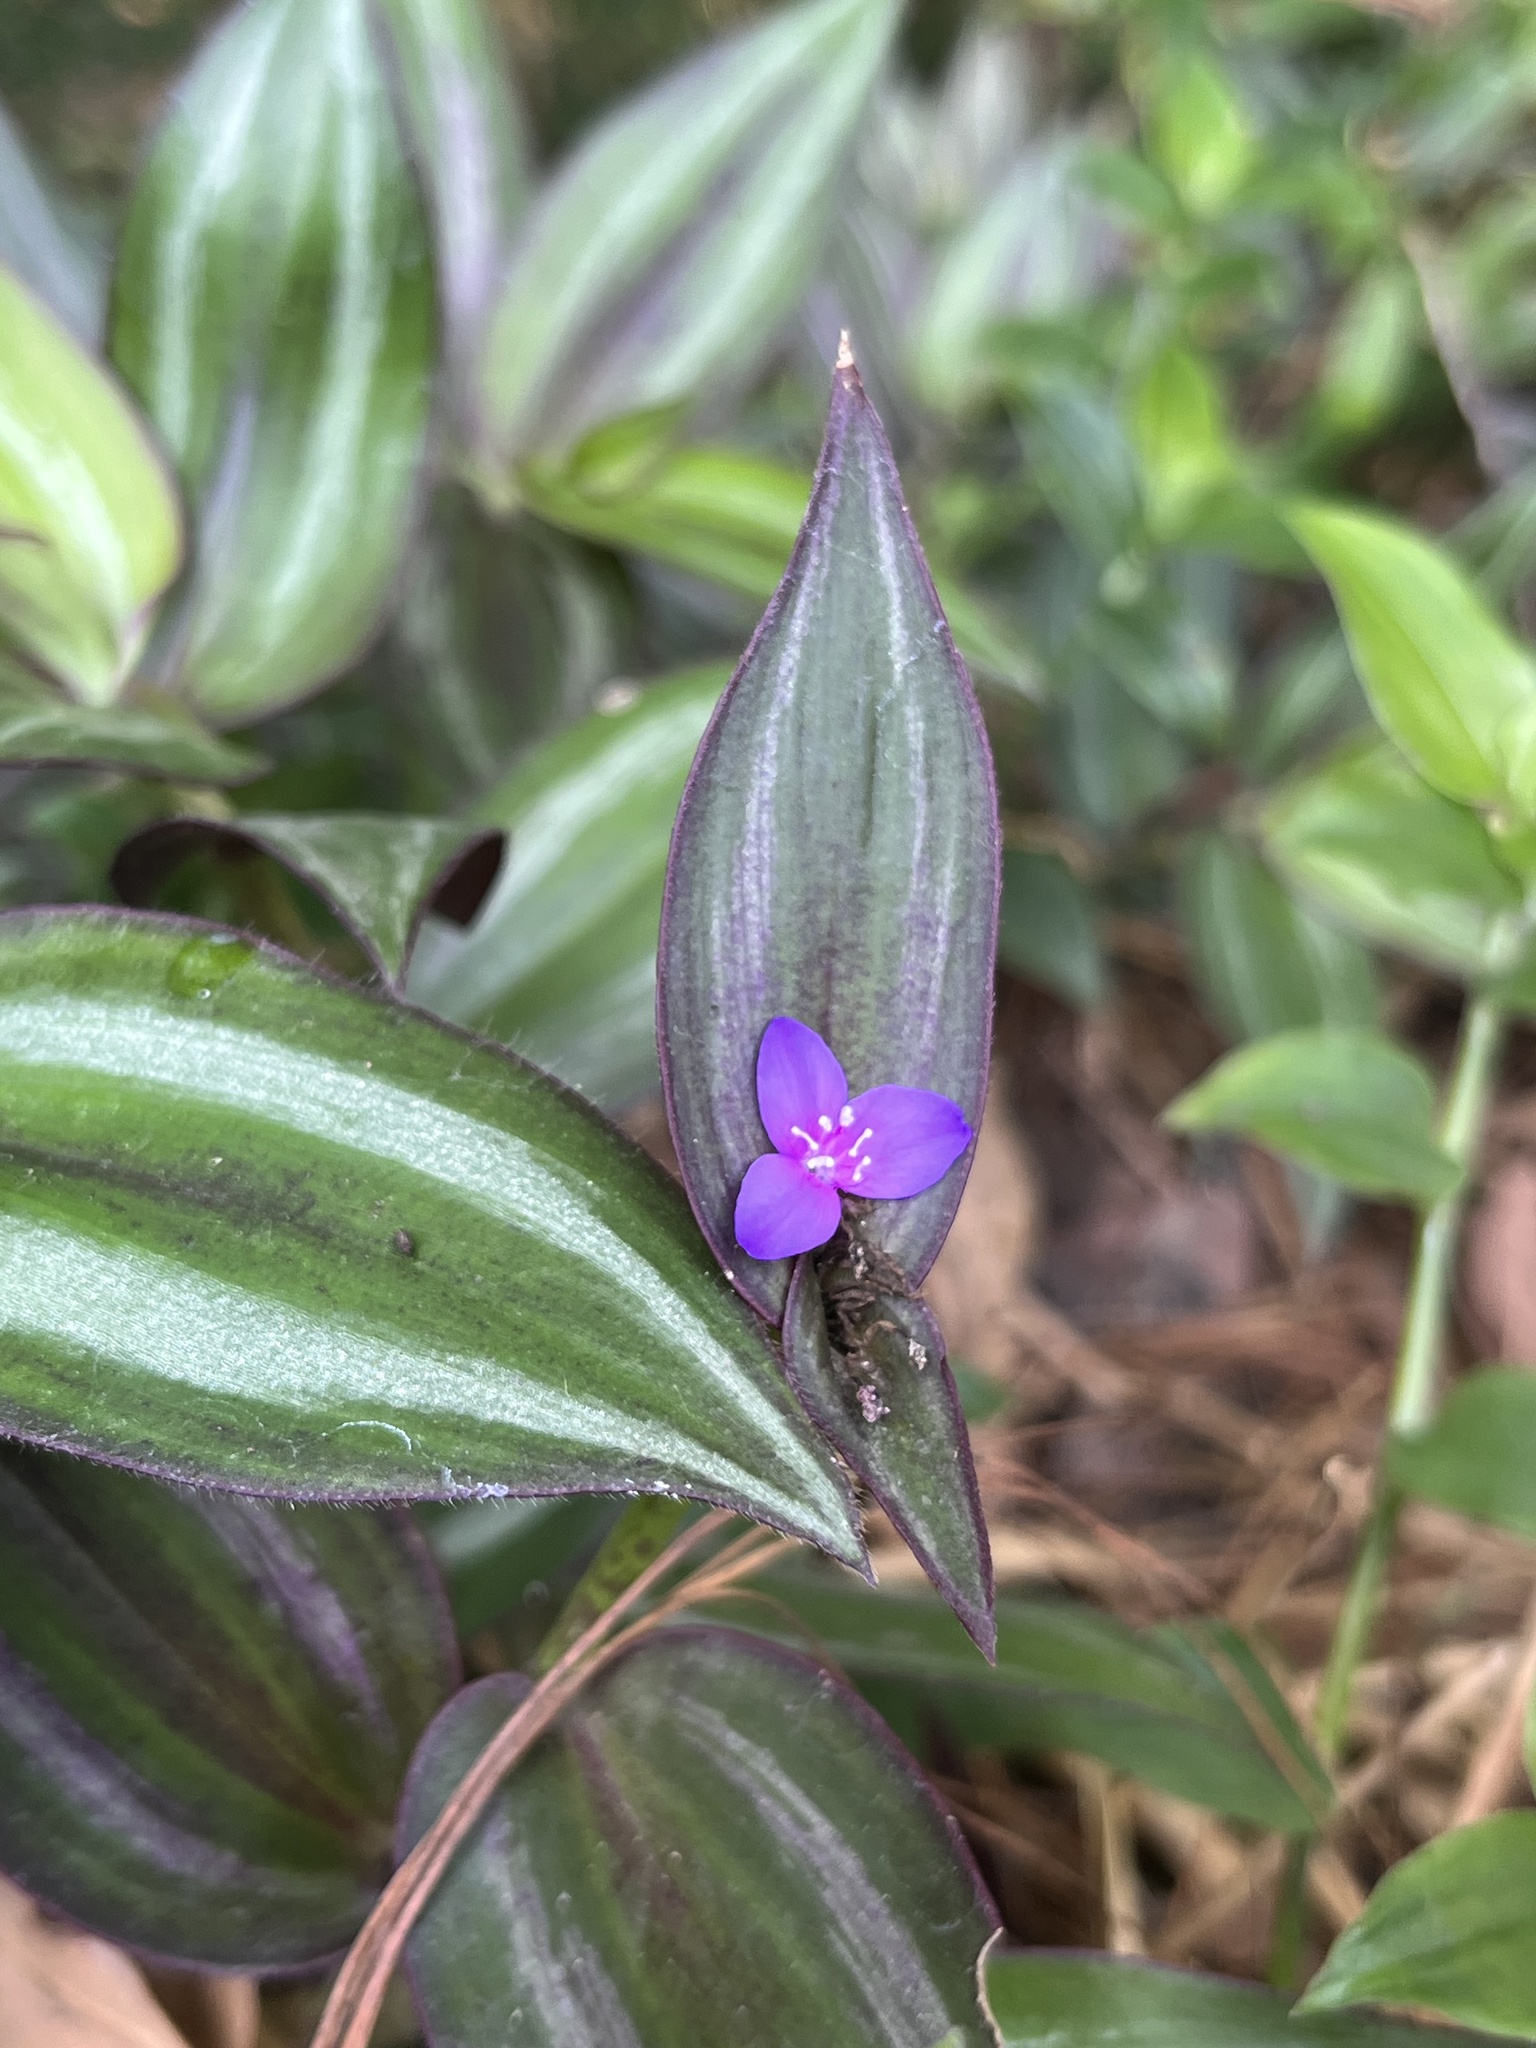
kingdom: Plantae
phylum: Tracheophyta
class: Liliopsida
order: Commelinales
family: Commelinaceae
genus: Tradescantia
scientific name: Tradescantia zebrina
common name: Inchplant
